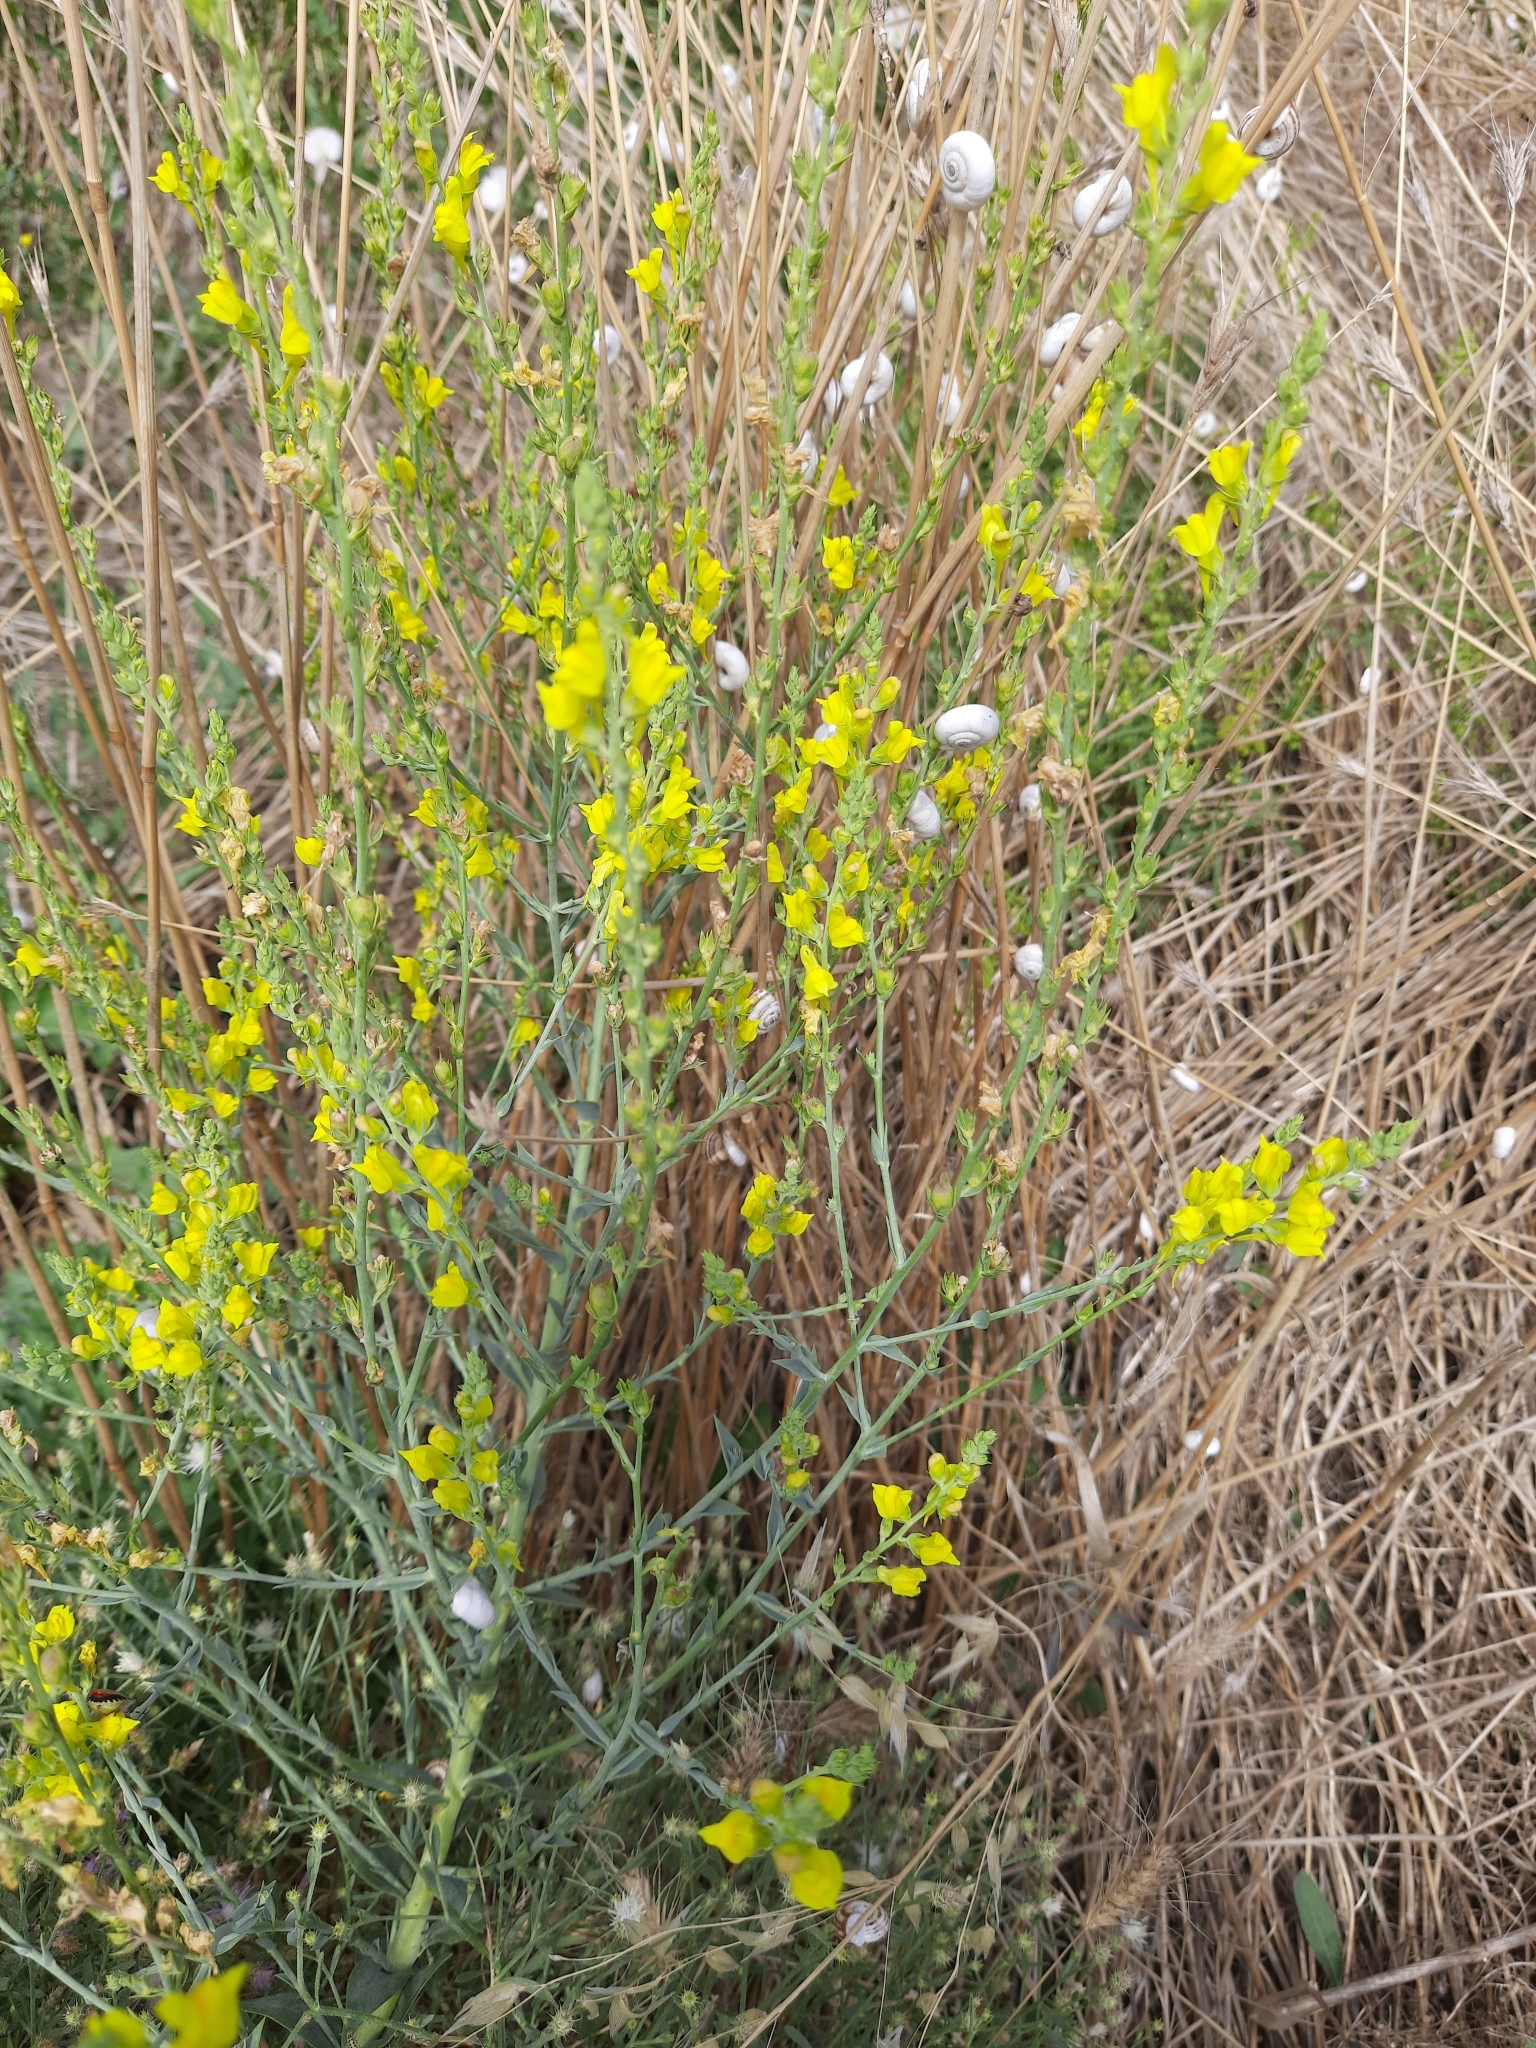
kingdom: Plantae
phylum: Tracheophyta
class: Magnoliopsida
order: Lamiales
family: Plantaginaceae
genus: Linaria
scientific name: Linaria genistifolia
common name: Broomleaf toadflax
